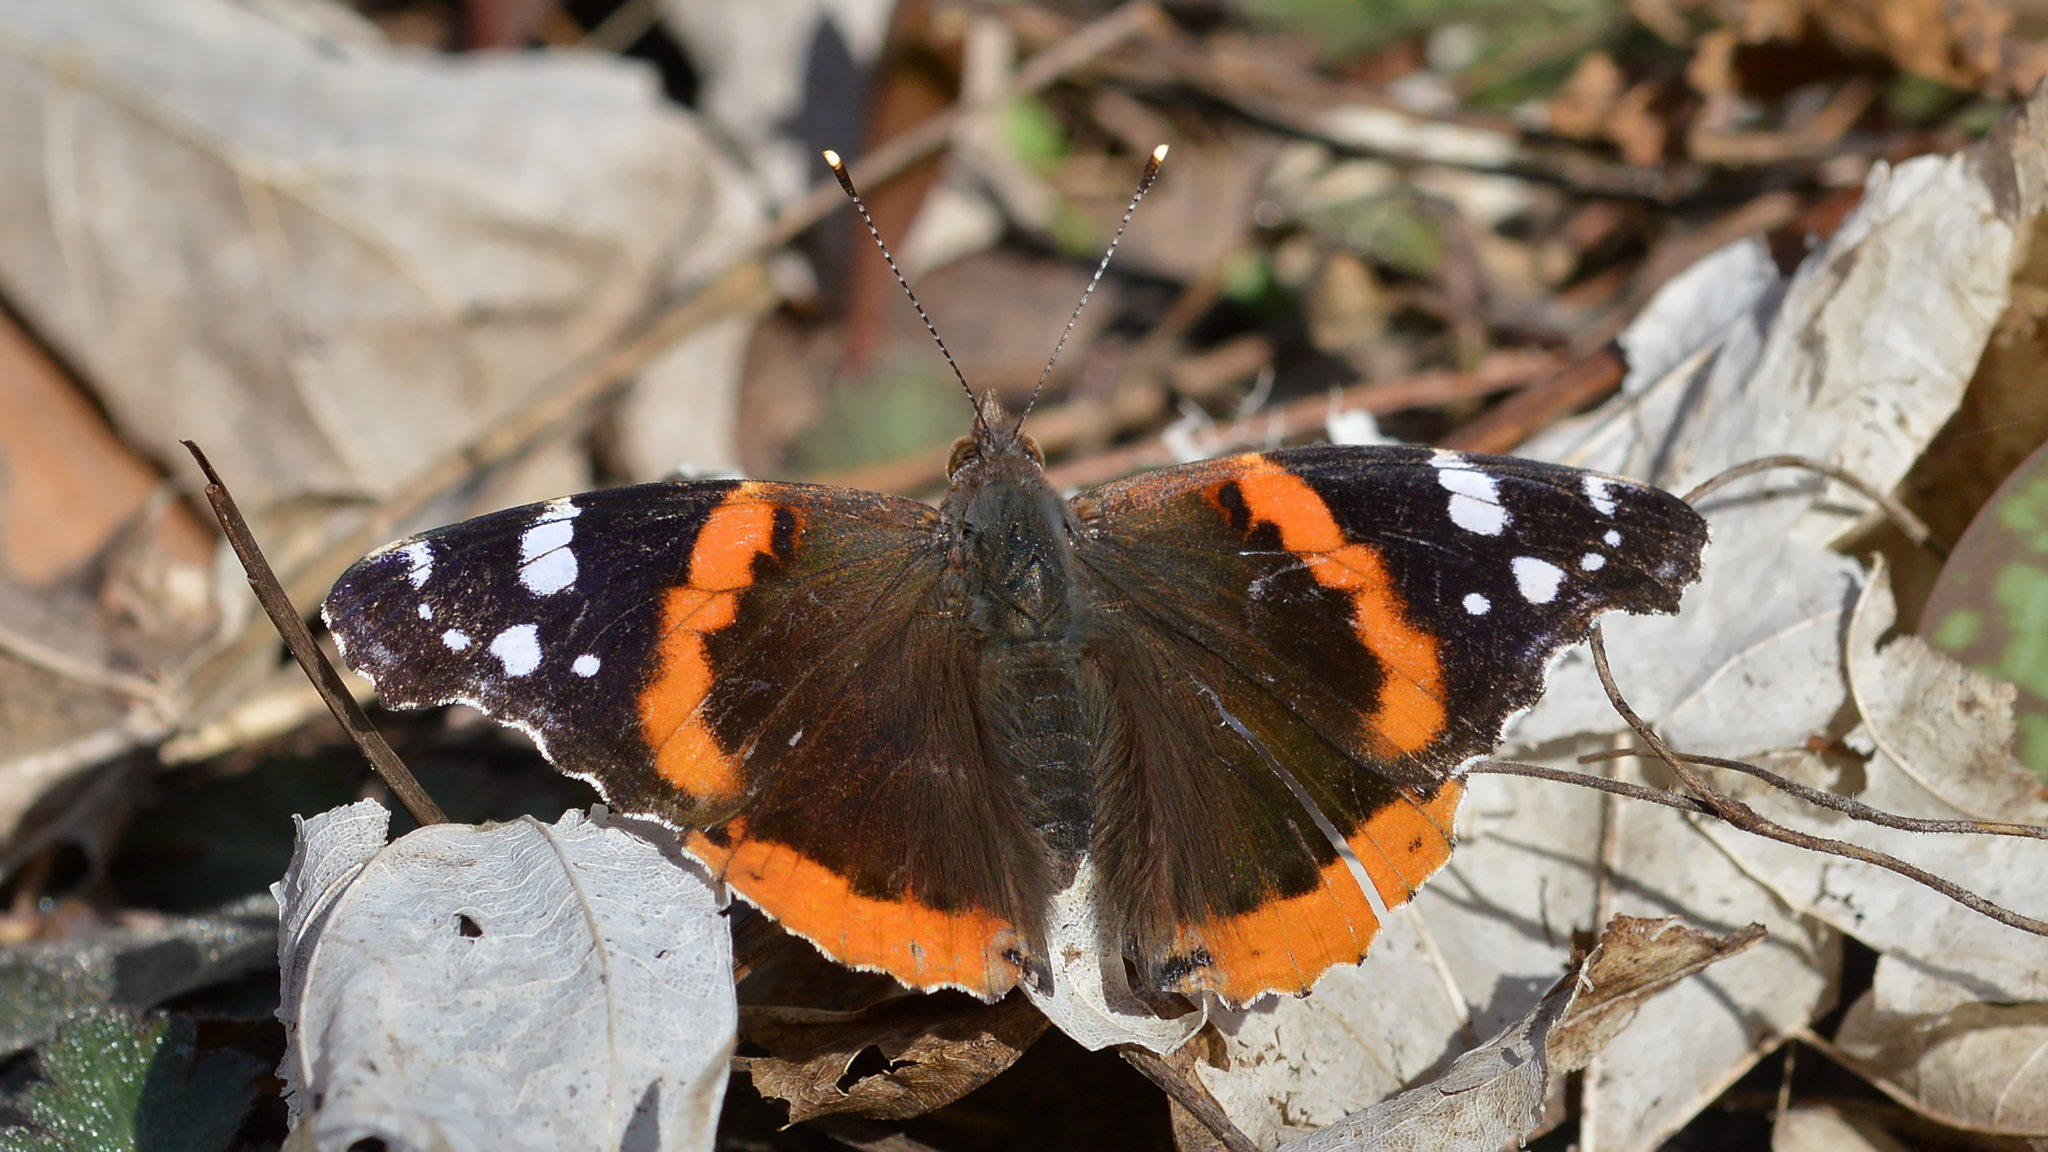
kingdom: Animalia
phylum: Arthropoda
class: Insecta
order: Lepidoptera
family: Nymphalidae
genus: Vanessa
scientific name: Vanessa atalanta
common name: Red admiral
